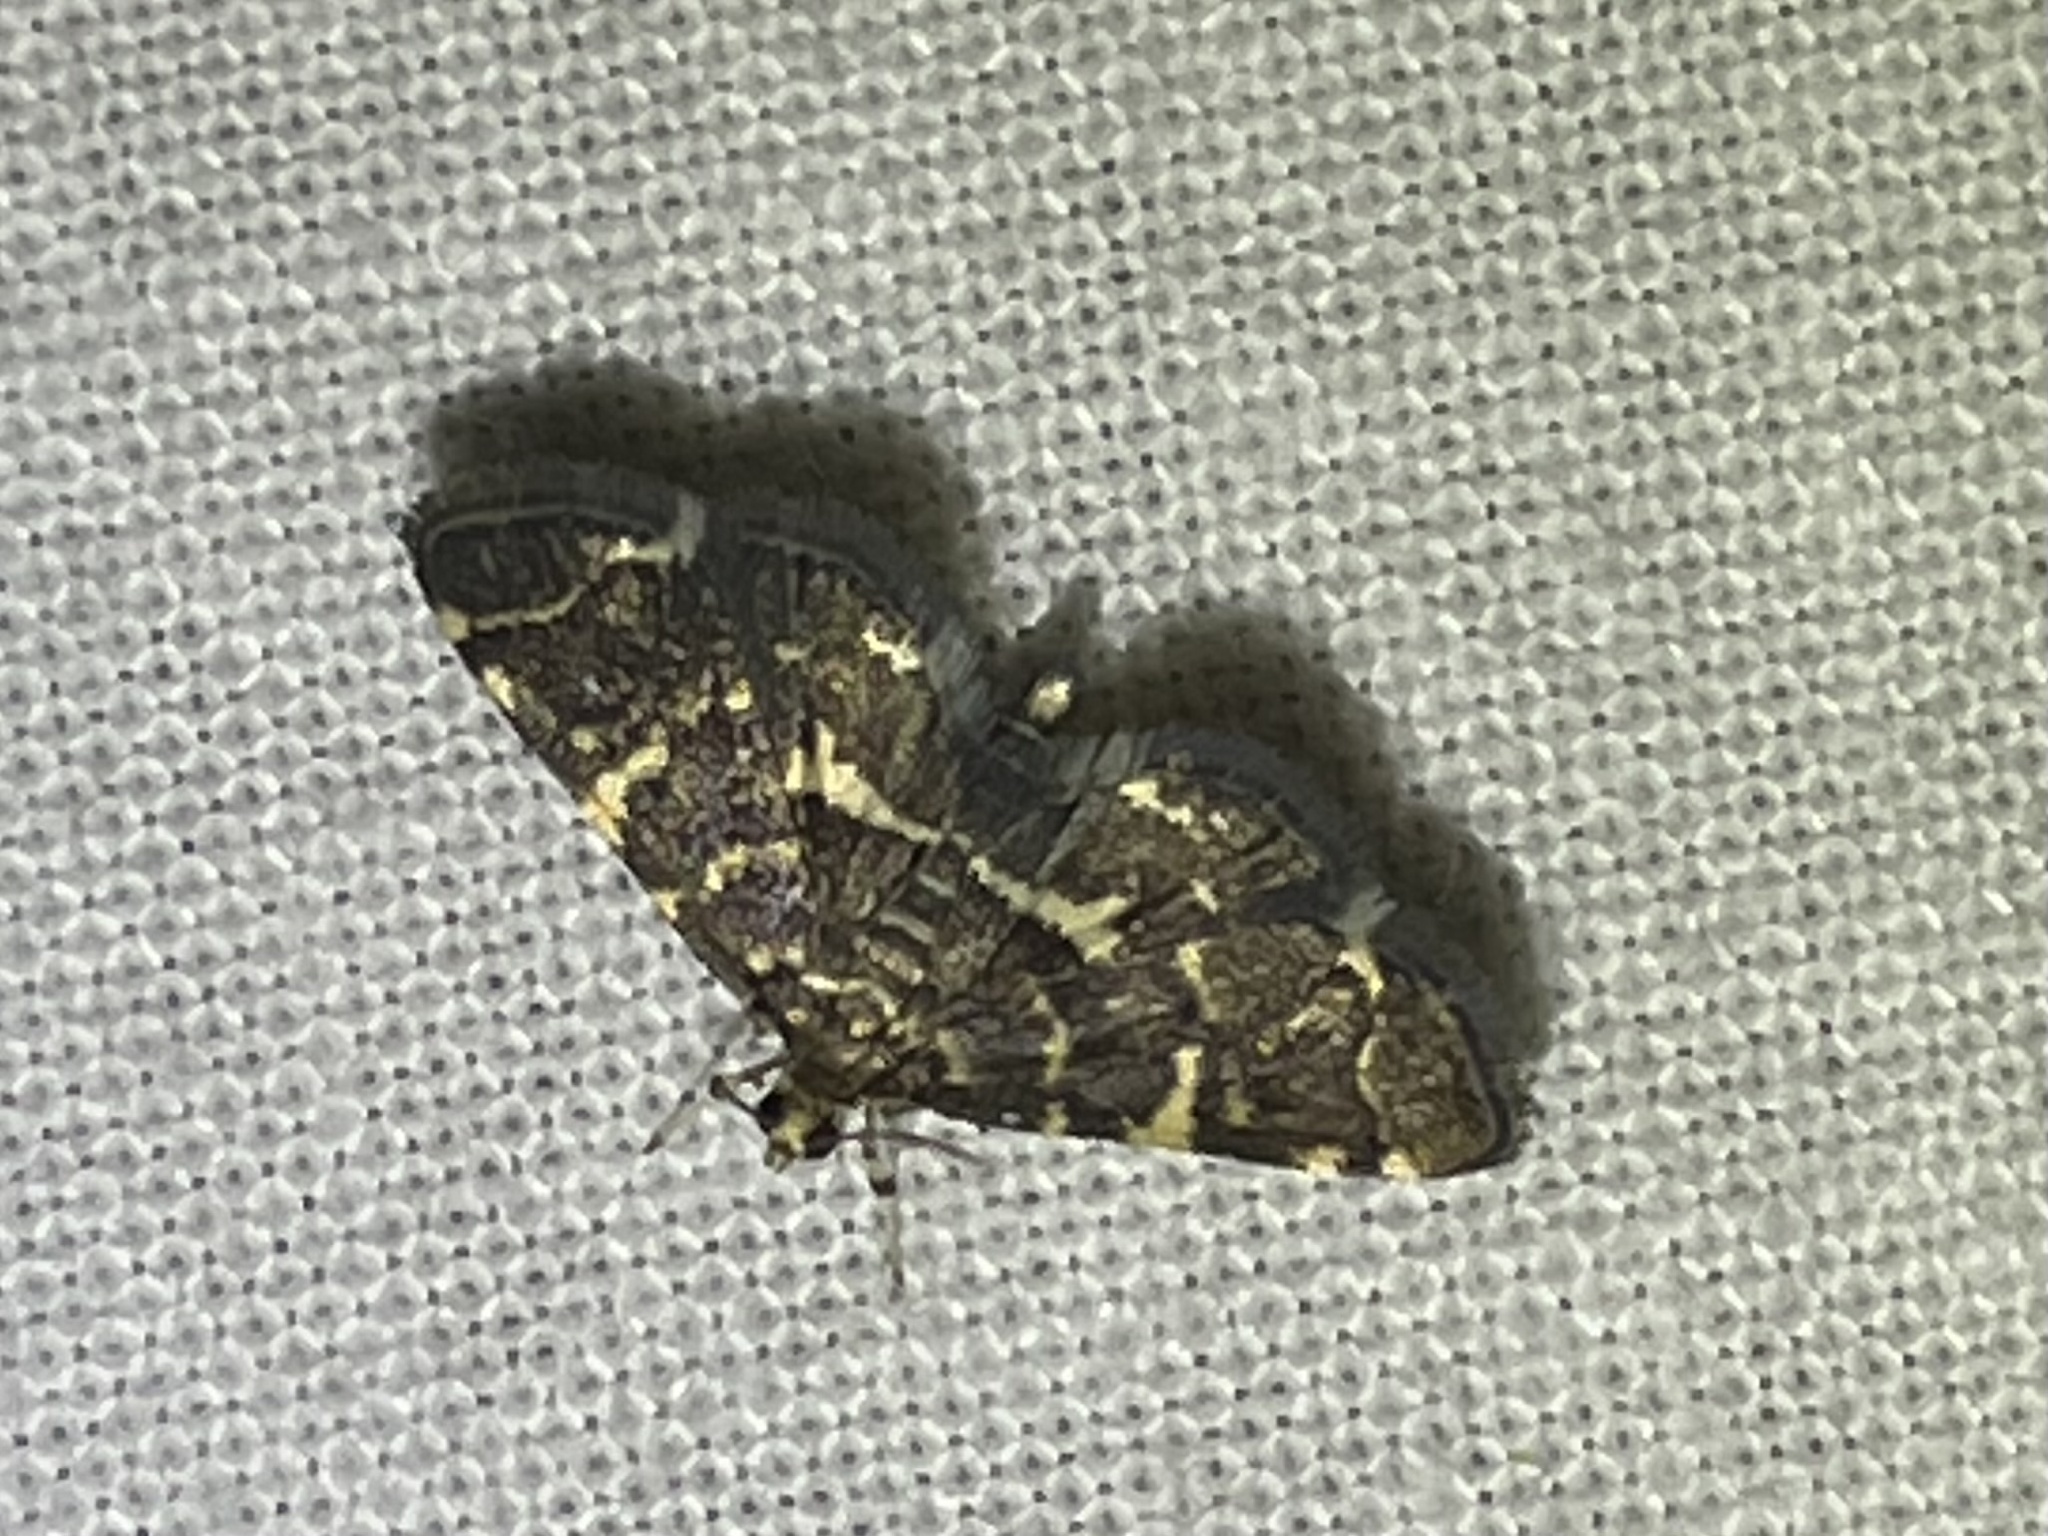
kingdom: Animalia
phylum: Arthropoda
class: Insecta
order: Lepidoptera
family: Crambidae
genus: Anageshna
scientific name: Anageshna primordialis
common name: Yellow-spotted webworm moth
